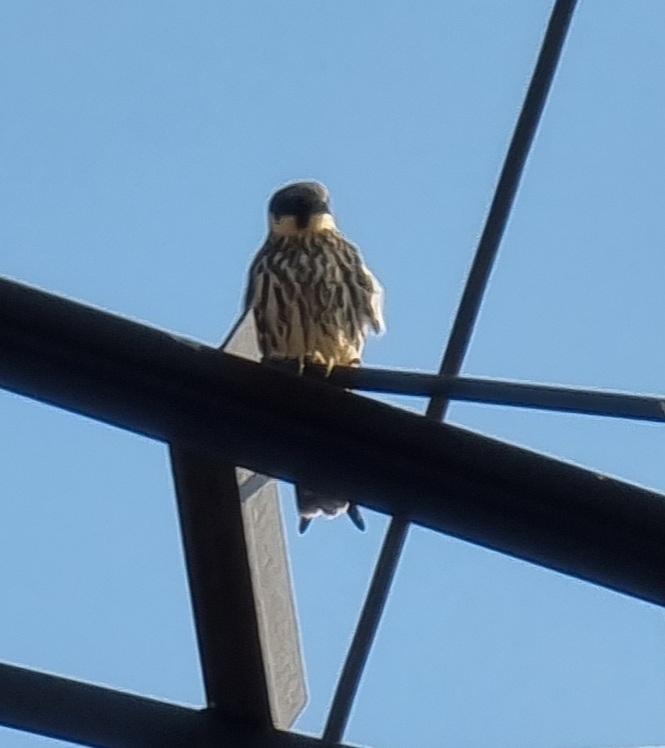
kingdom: Animalia
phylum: Chordata
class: Aves
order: Falconiformes
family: Falconidae
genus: Falco
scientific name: Falco subbuteo
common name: Eurasian hobby
